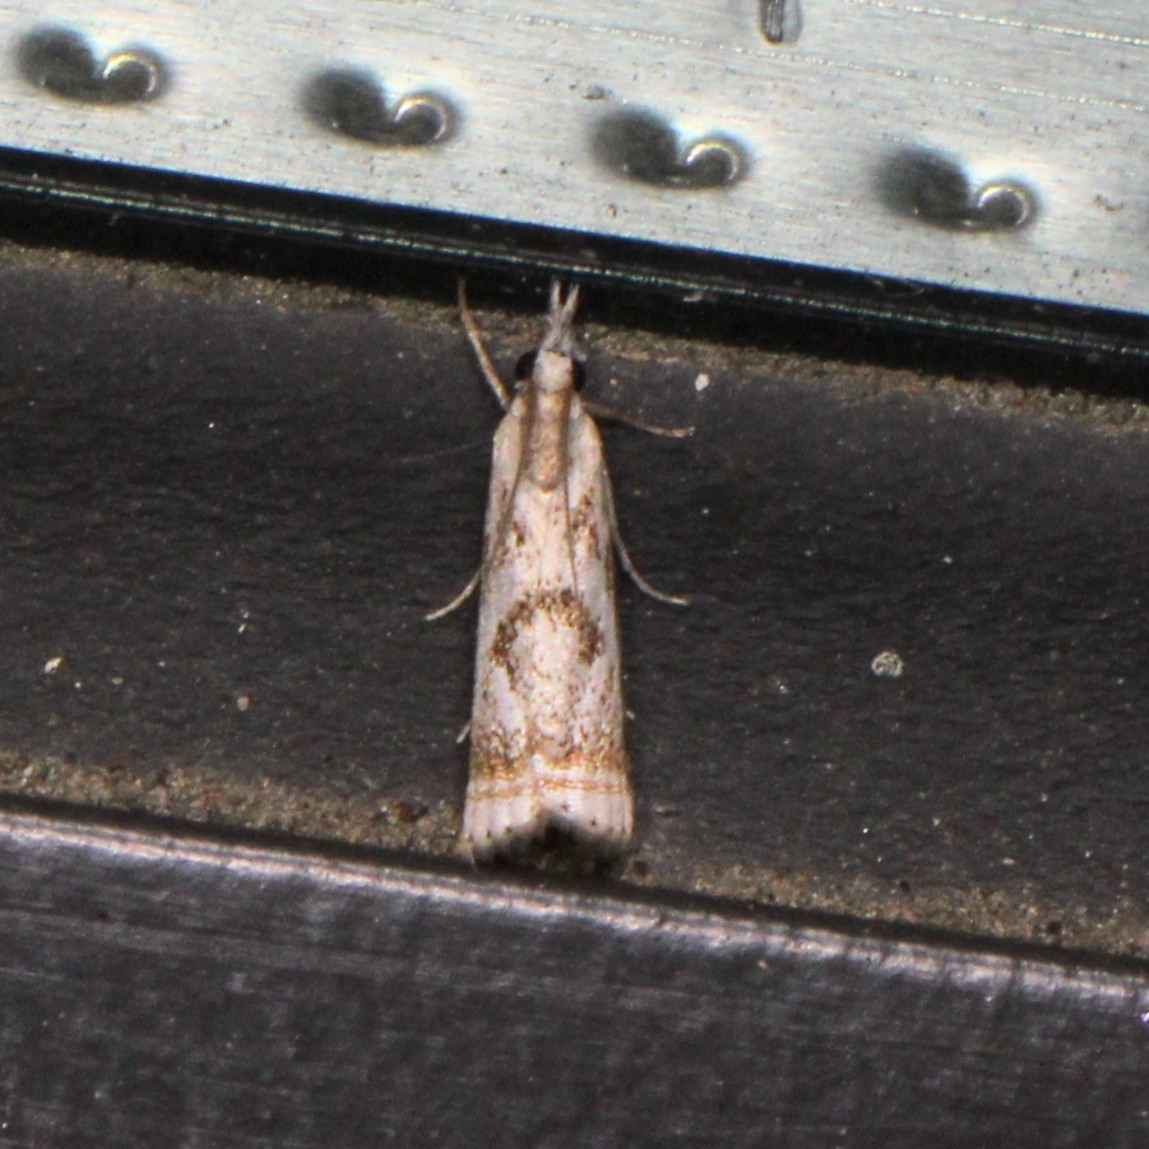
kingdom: Animalia
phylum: Arthropoda
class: Insecta
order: Lepidoptera
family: Crambidae
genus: Microcrambus
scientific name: Microcrambus elegans
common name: Elegant grass-veneer
